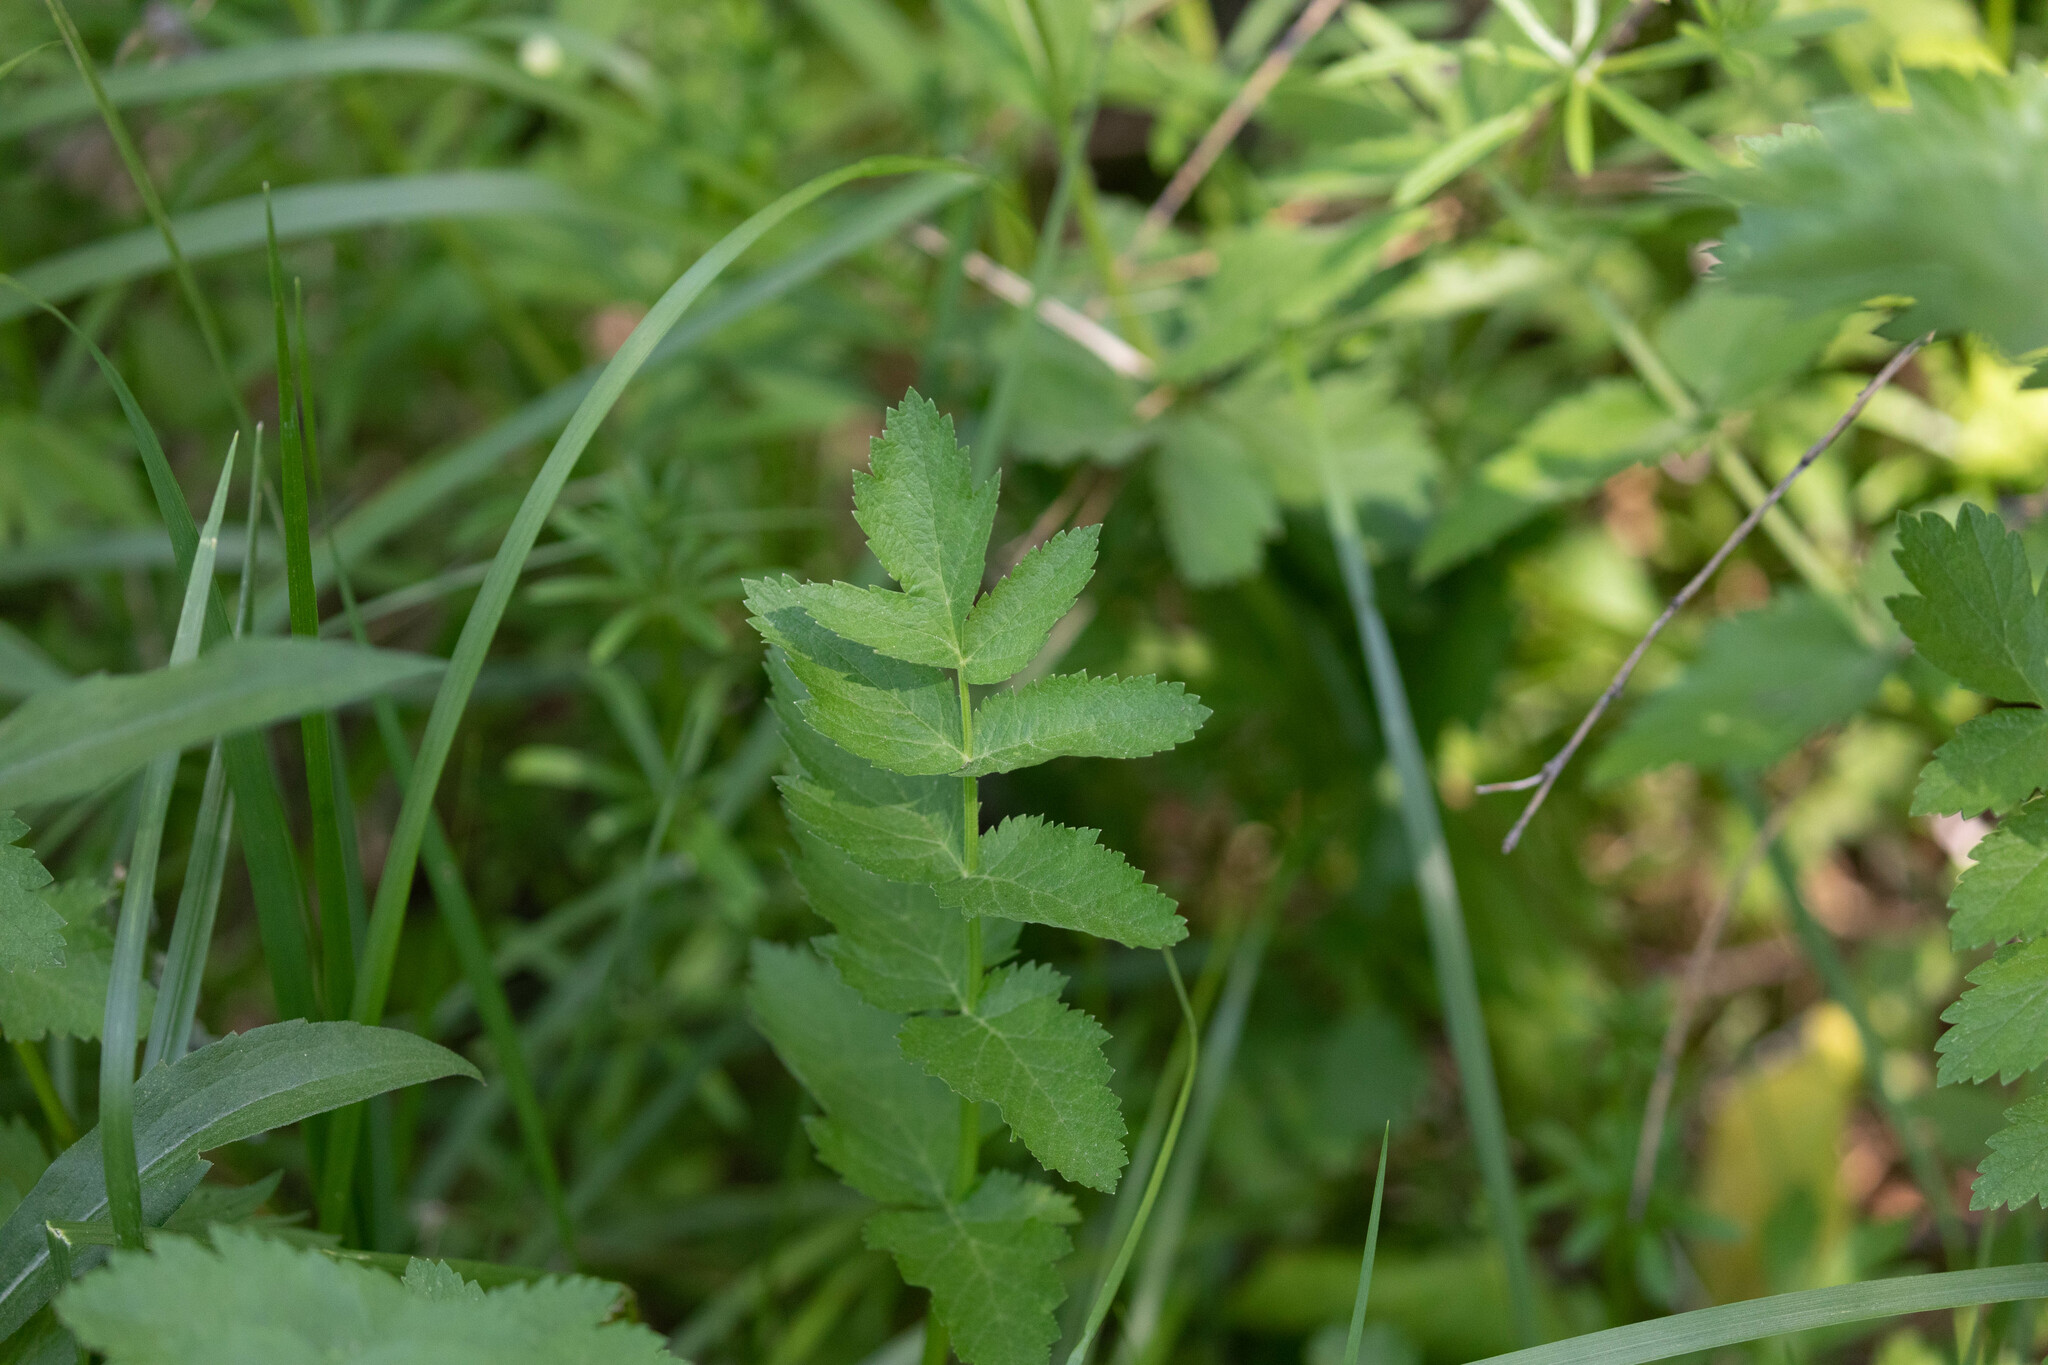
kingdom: Plantae
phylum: Tracheophyta
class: Magnoliopsida
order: Apiales
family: Apiaceae
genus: Pastinaca
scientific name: Pastinaca sativa
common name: Wild parsnip
